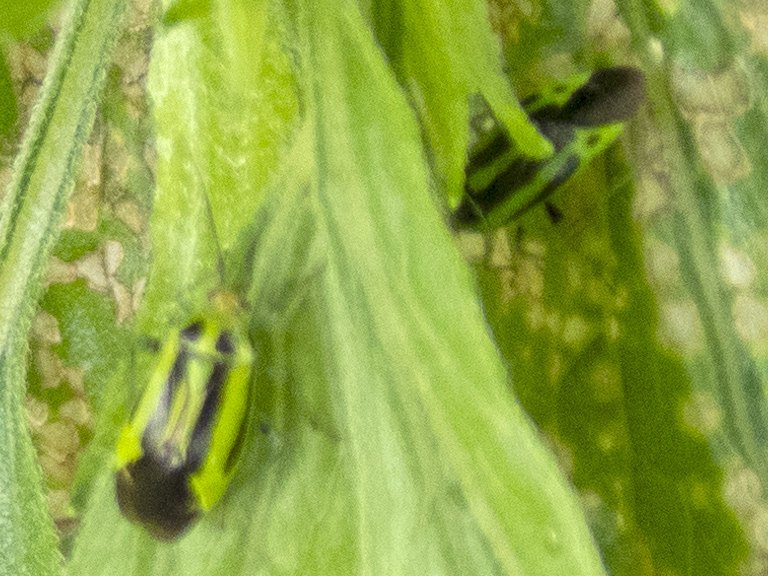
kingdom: Animalia
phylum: Arthropoda
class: Insecta
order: Hemiptera
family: Miridae
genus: Poecilocapsus
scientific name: Poecilocapsus lineatus
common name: Four-lined plant bug
